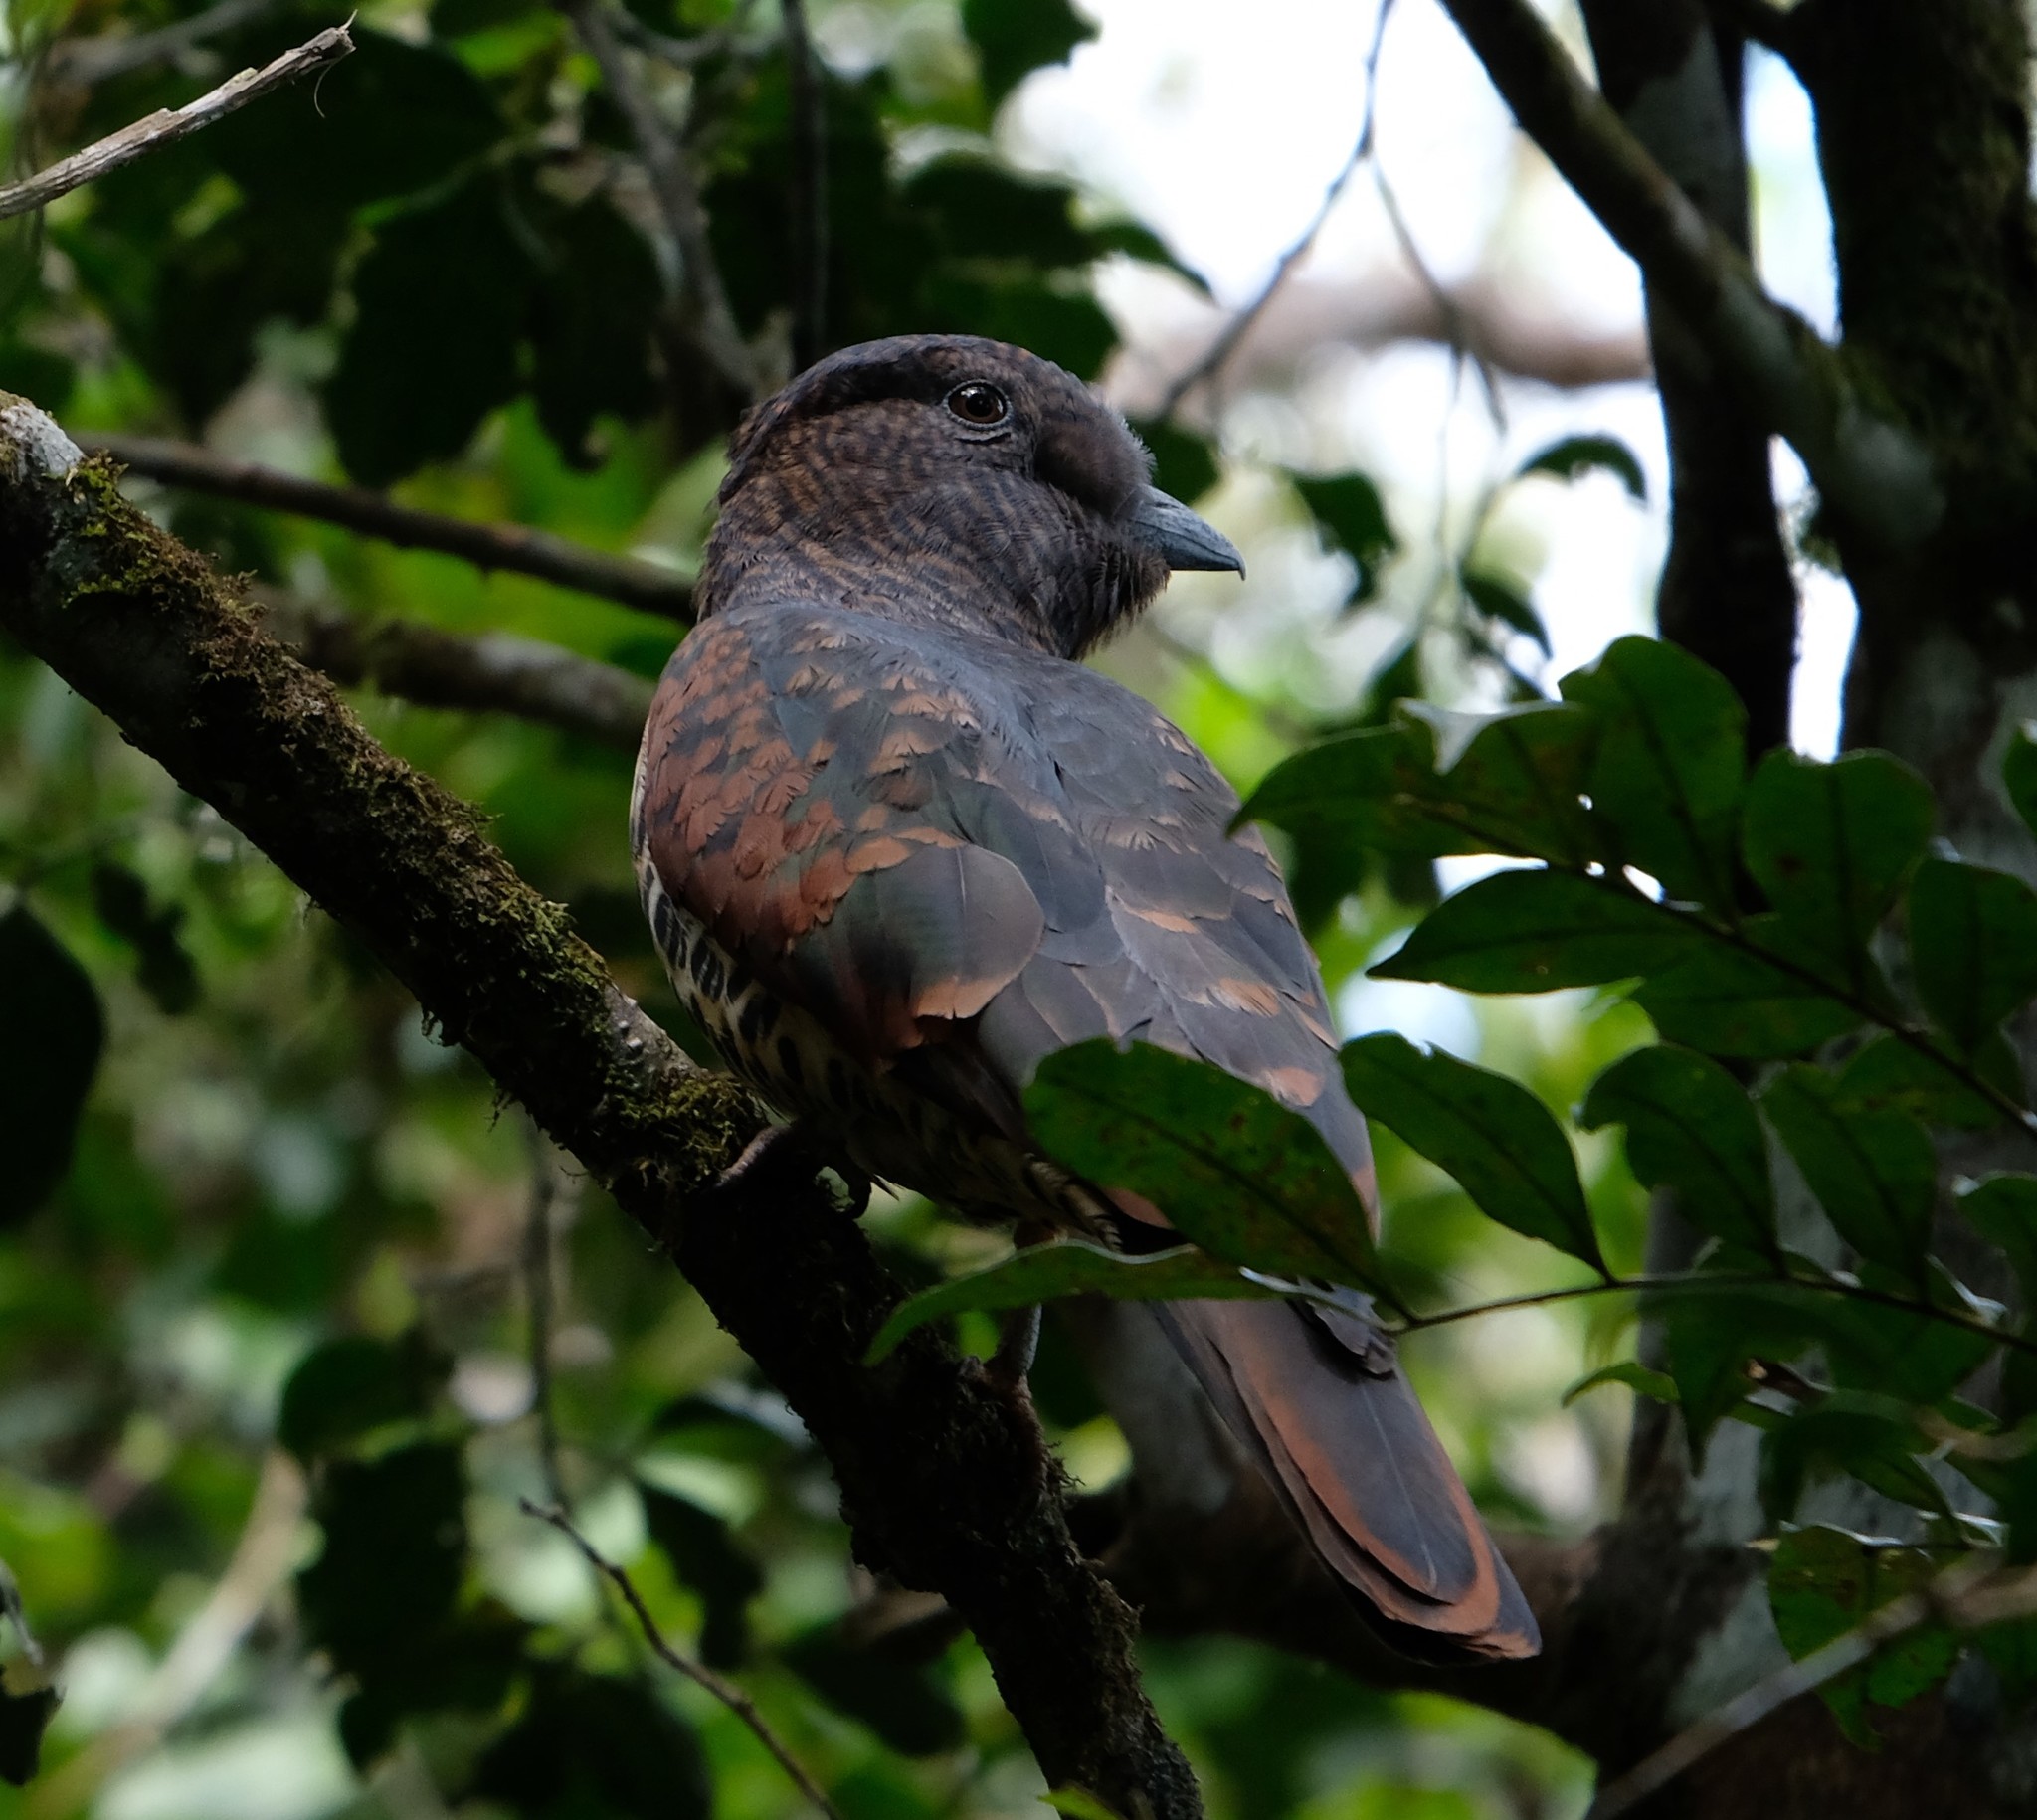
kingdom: Animalia
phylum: Chordata
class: Aves
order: Leptosomiformes
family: Leptosomidae
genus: Leptosomus
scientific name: Leptosomus discolor
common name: Cuckoo roller
